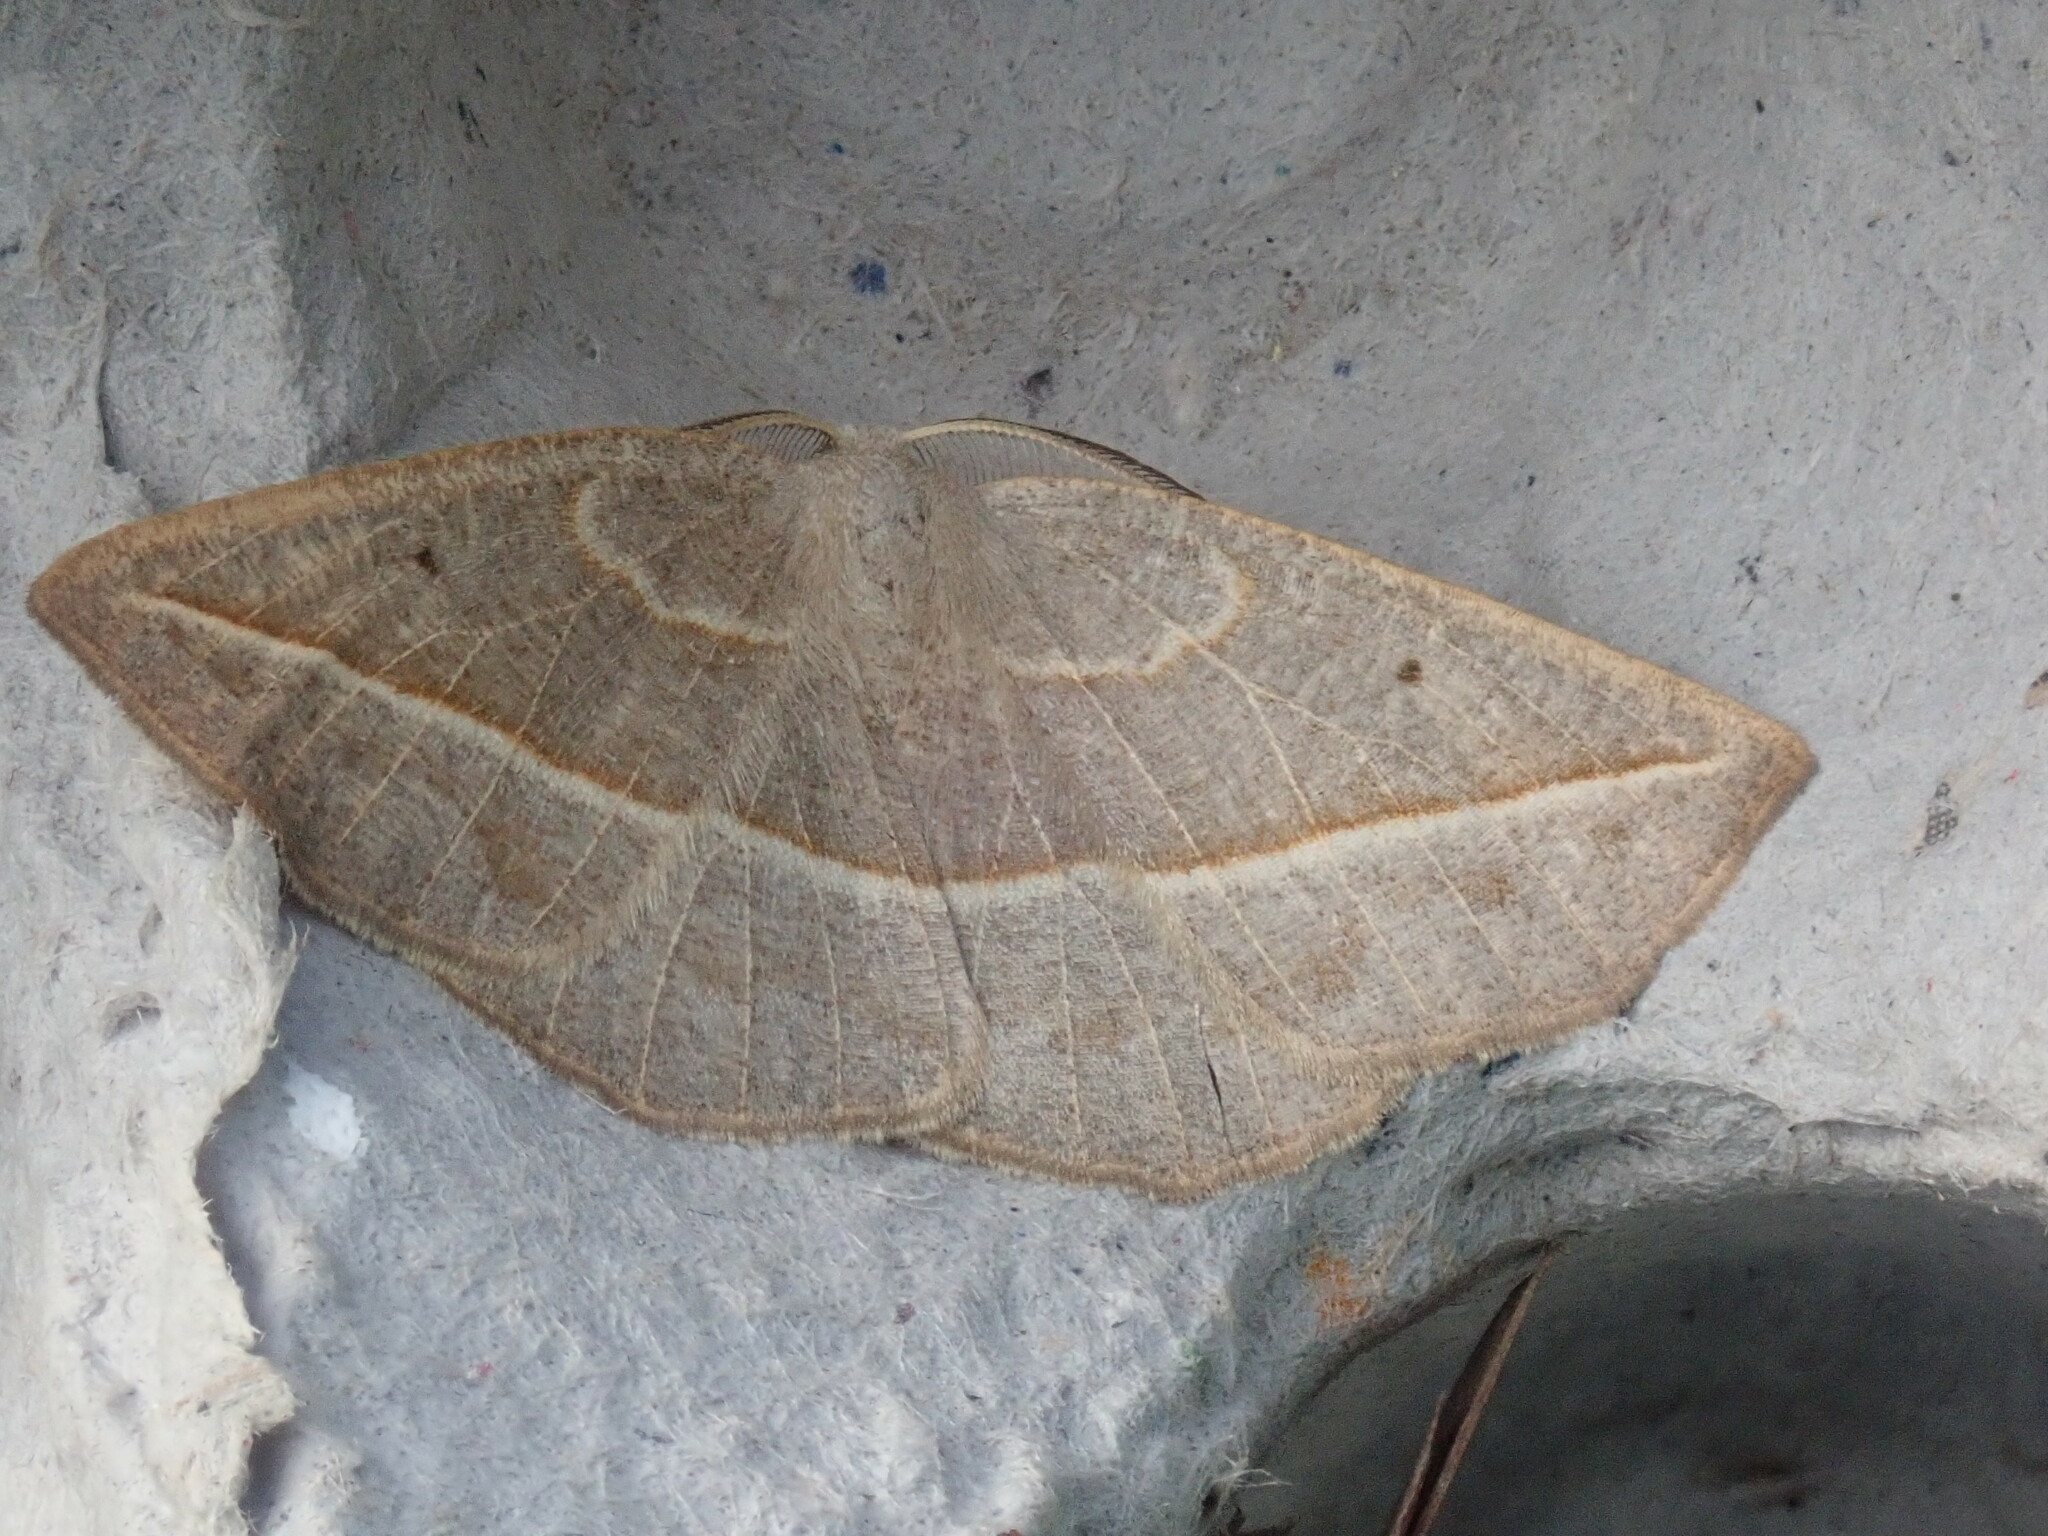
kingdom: Animalia
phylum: Arthropoda
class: Insecta
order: Lepidoptera
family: Geometridae
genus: Eusarca
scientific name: Eusarca confusaria
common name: Confused eusarca
